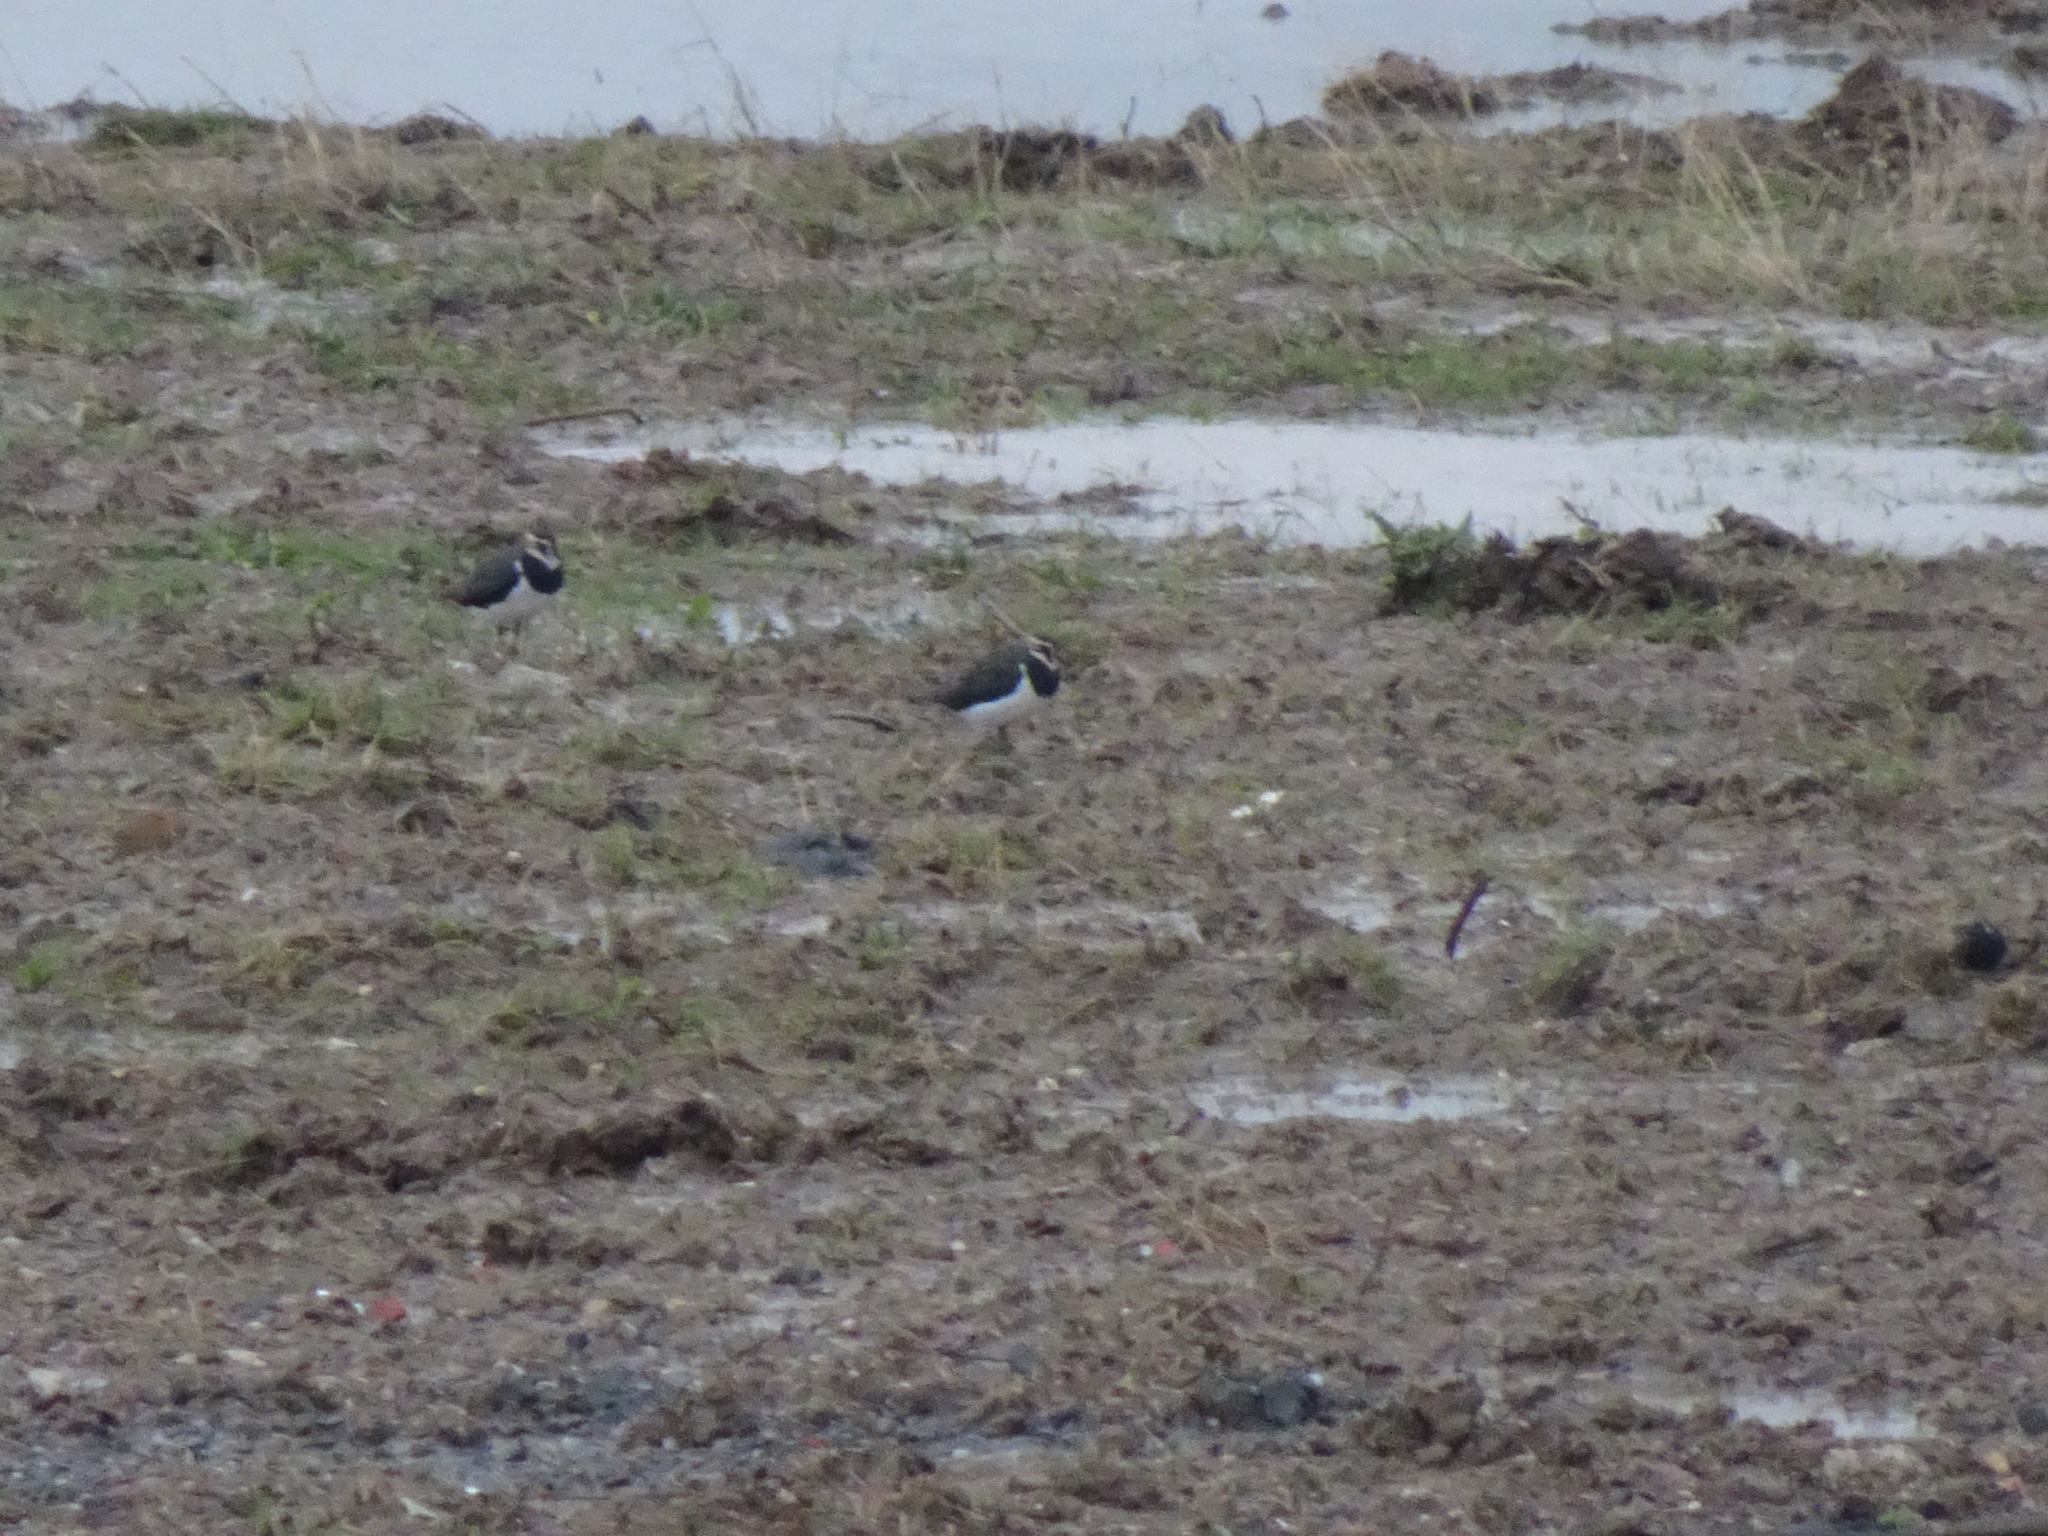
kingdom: Animalia
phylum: Chordata
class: Aves
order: Charadriiformes
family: Charadriidae
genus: Vanellus
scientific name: Vanellus vanellus
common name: Northern lapwing
